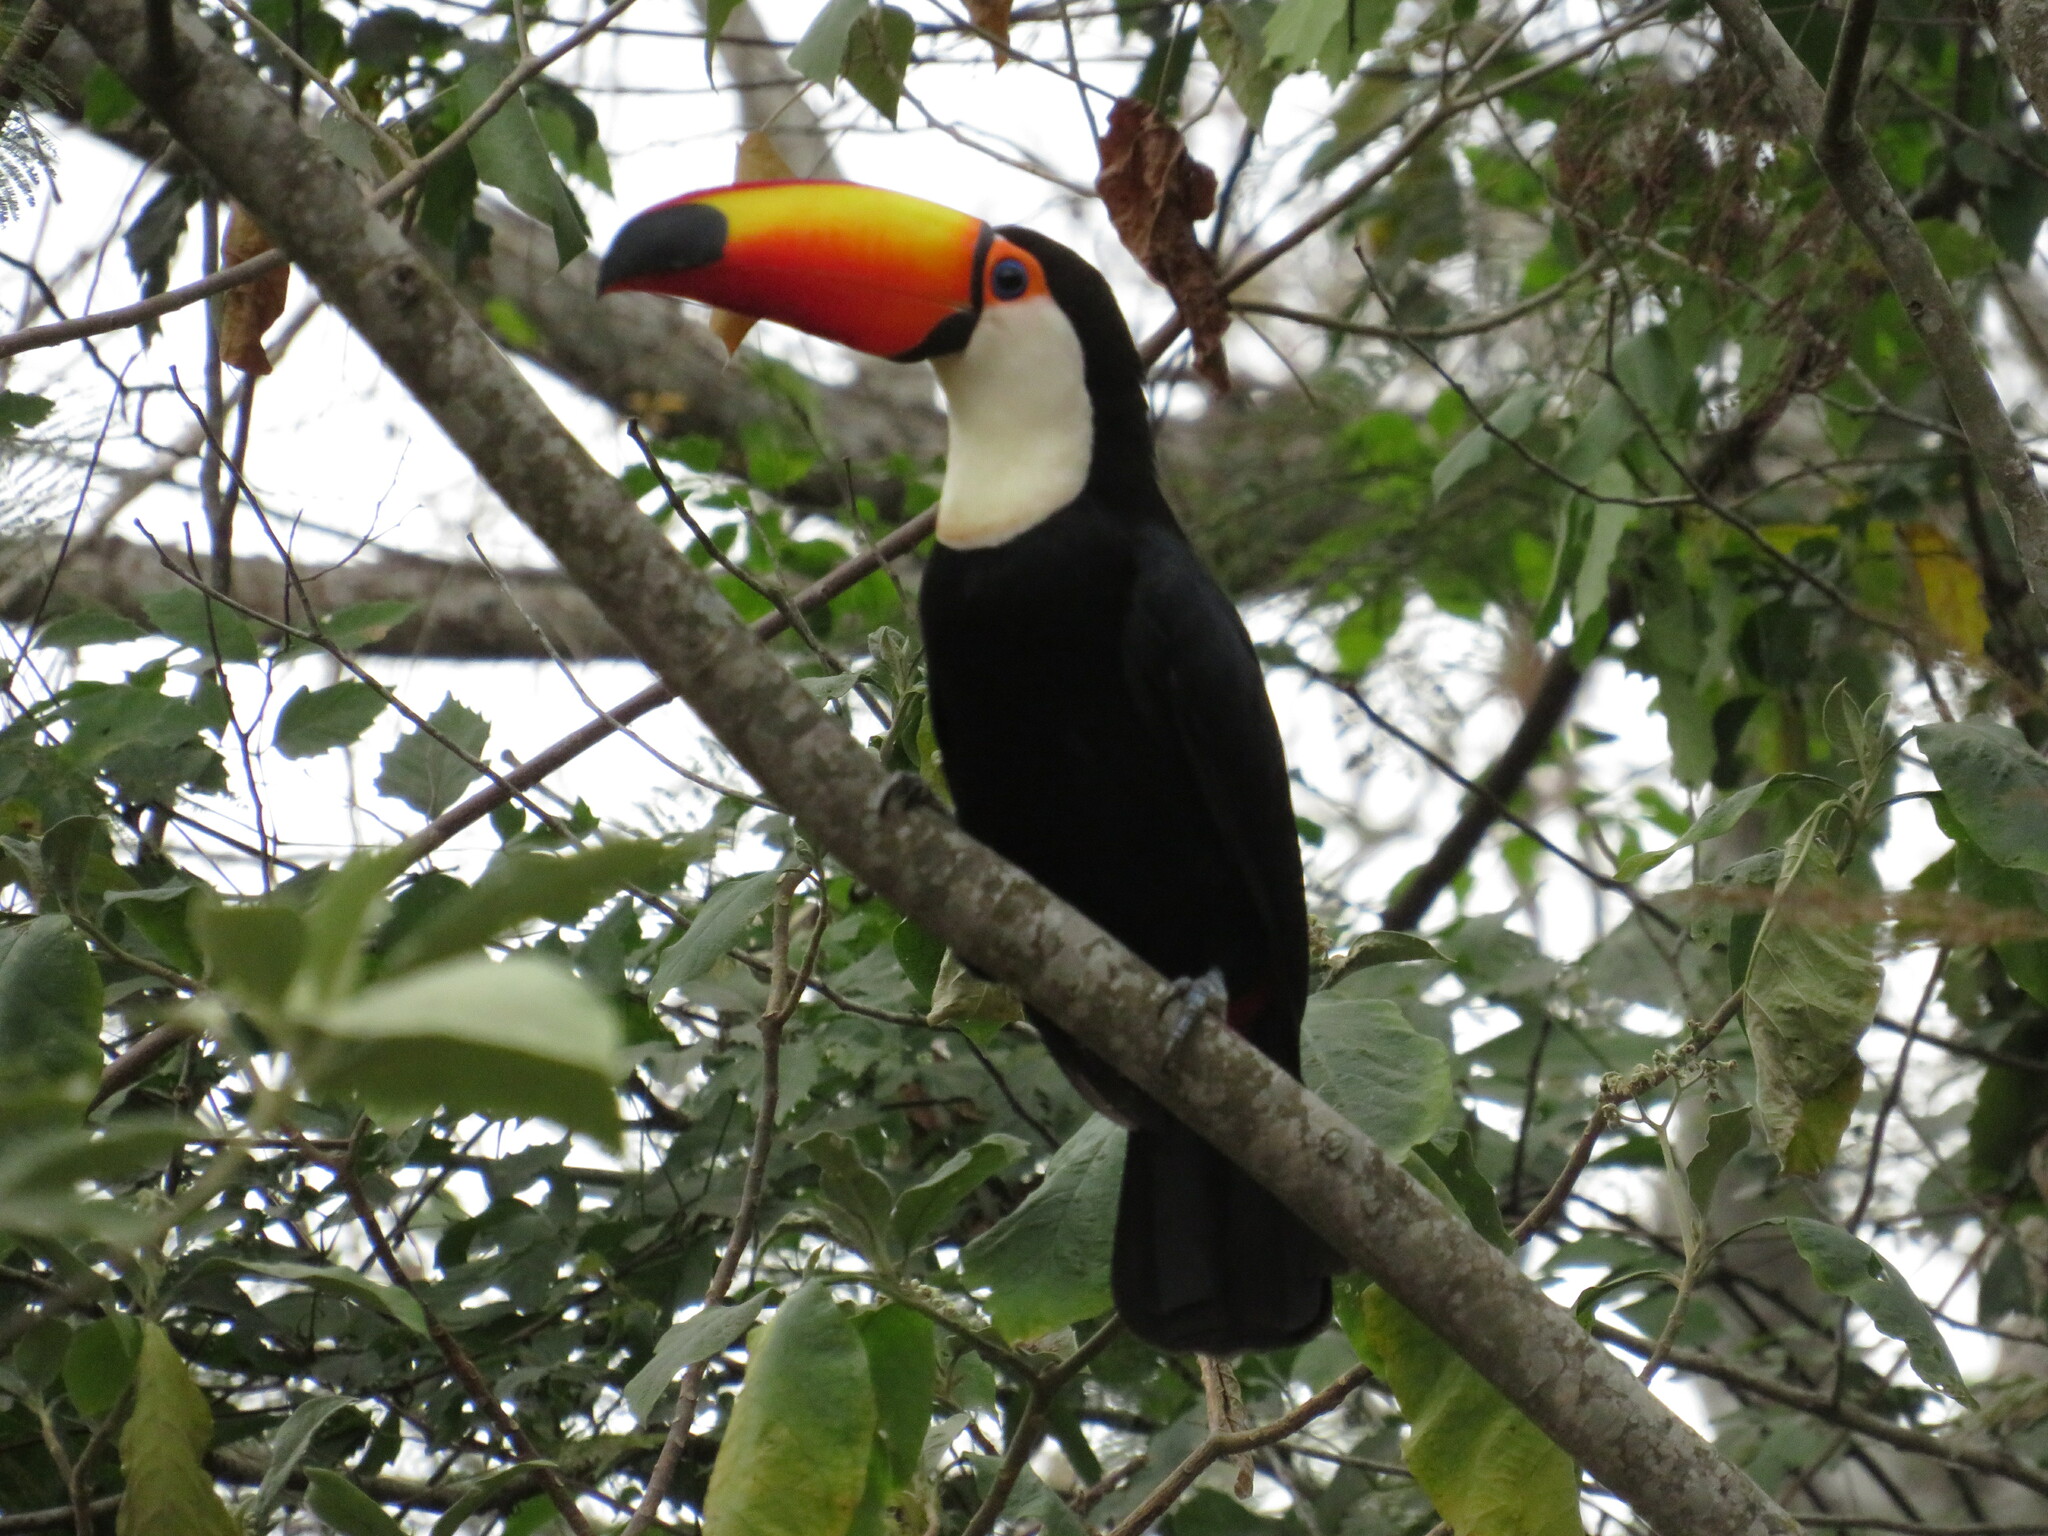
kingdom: Animalia
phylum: Chordata
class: Aves
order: Piciformes
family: Ramphastidae
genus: Ramphastos
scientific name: Ramphastos toco
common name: Toco toucan
